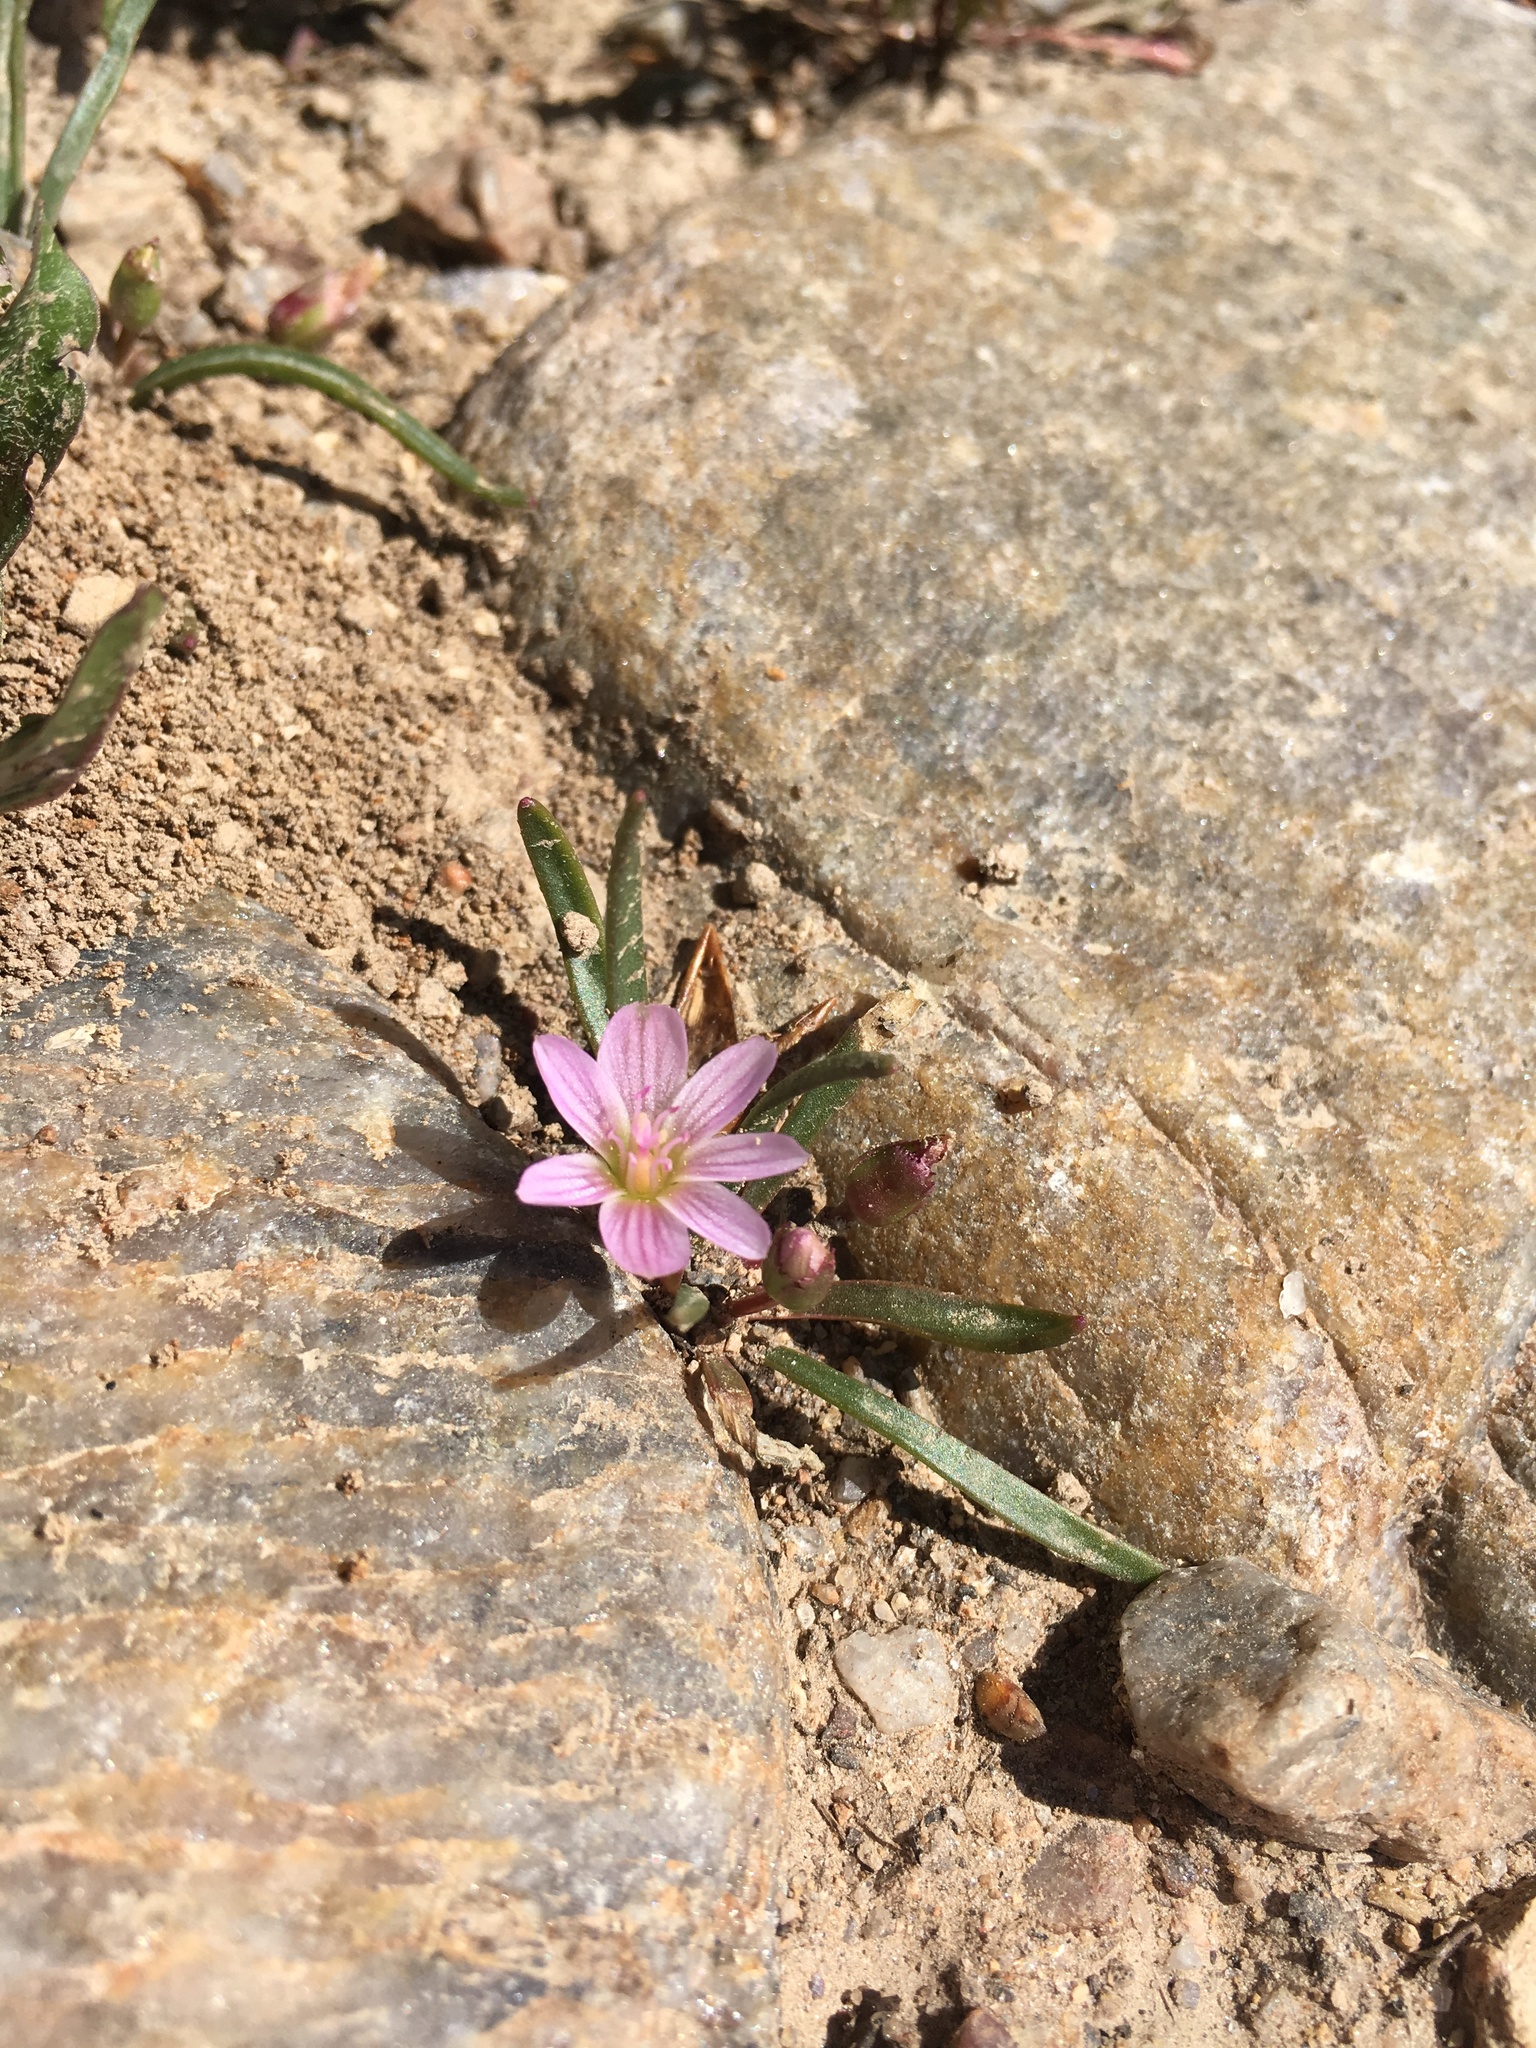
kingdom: Plantae
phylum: Tracheophyta
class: Magnoliopsida
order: Caryophyllales
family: Montiaceae
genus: Lewisia
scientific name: Lewisia pygmaea
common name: Alpine bitterroot
